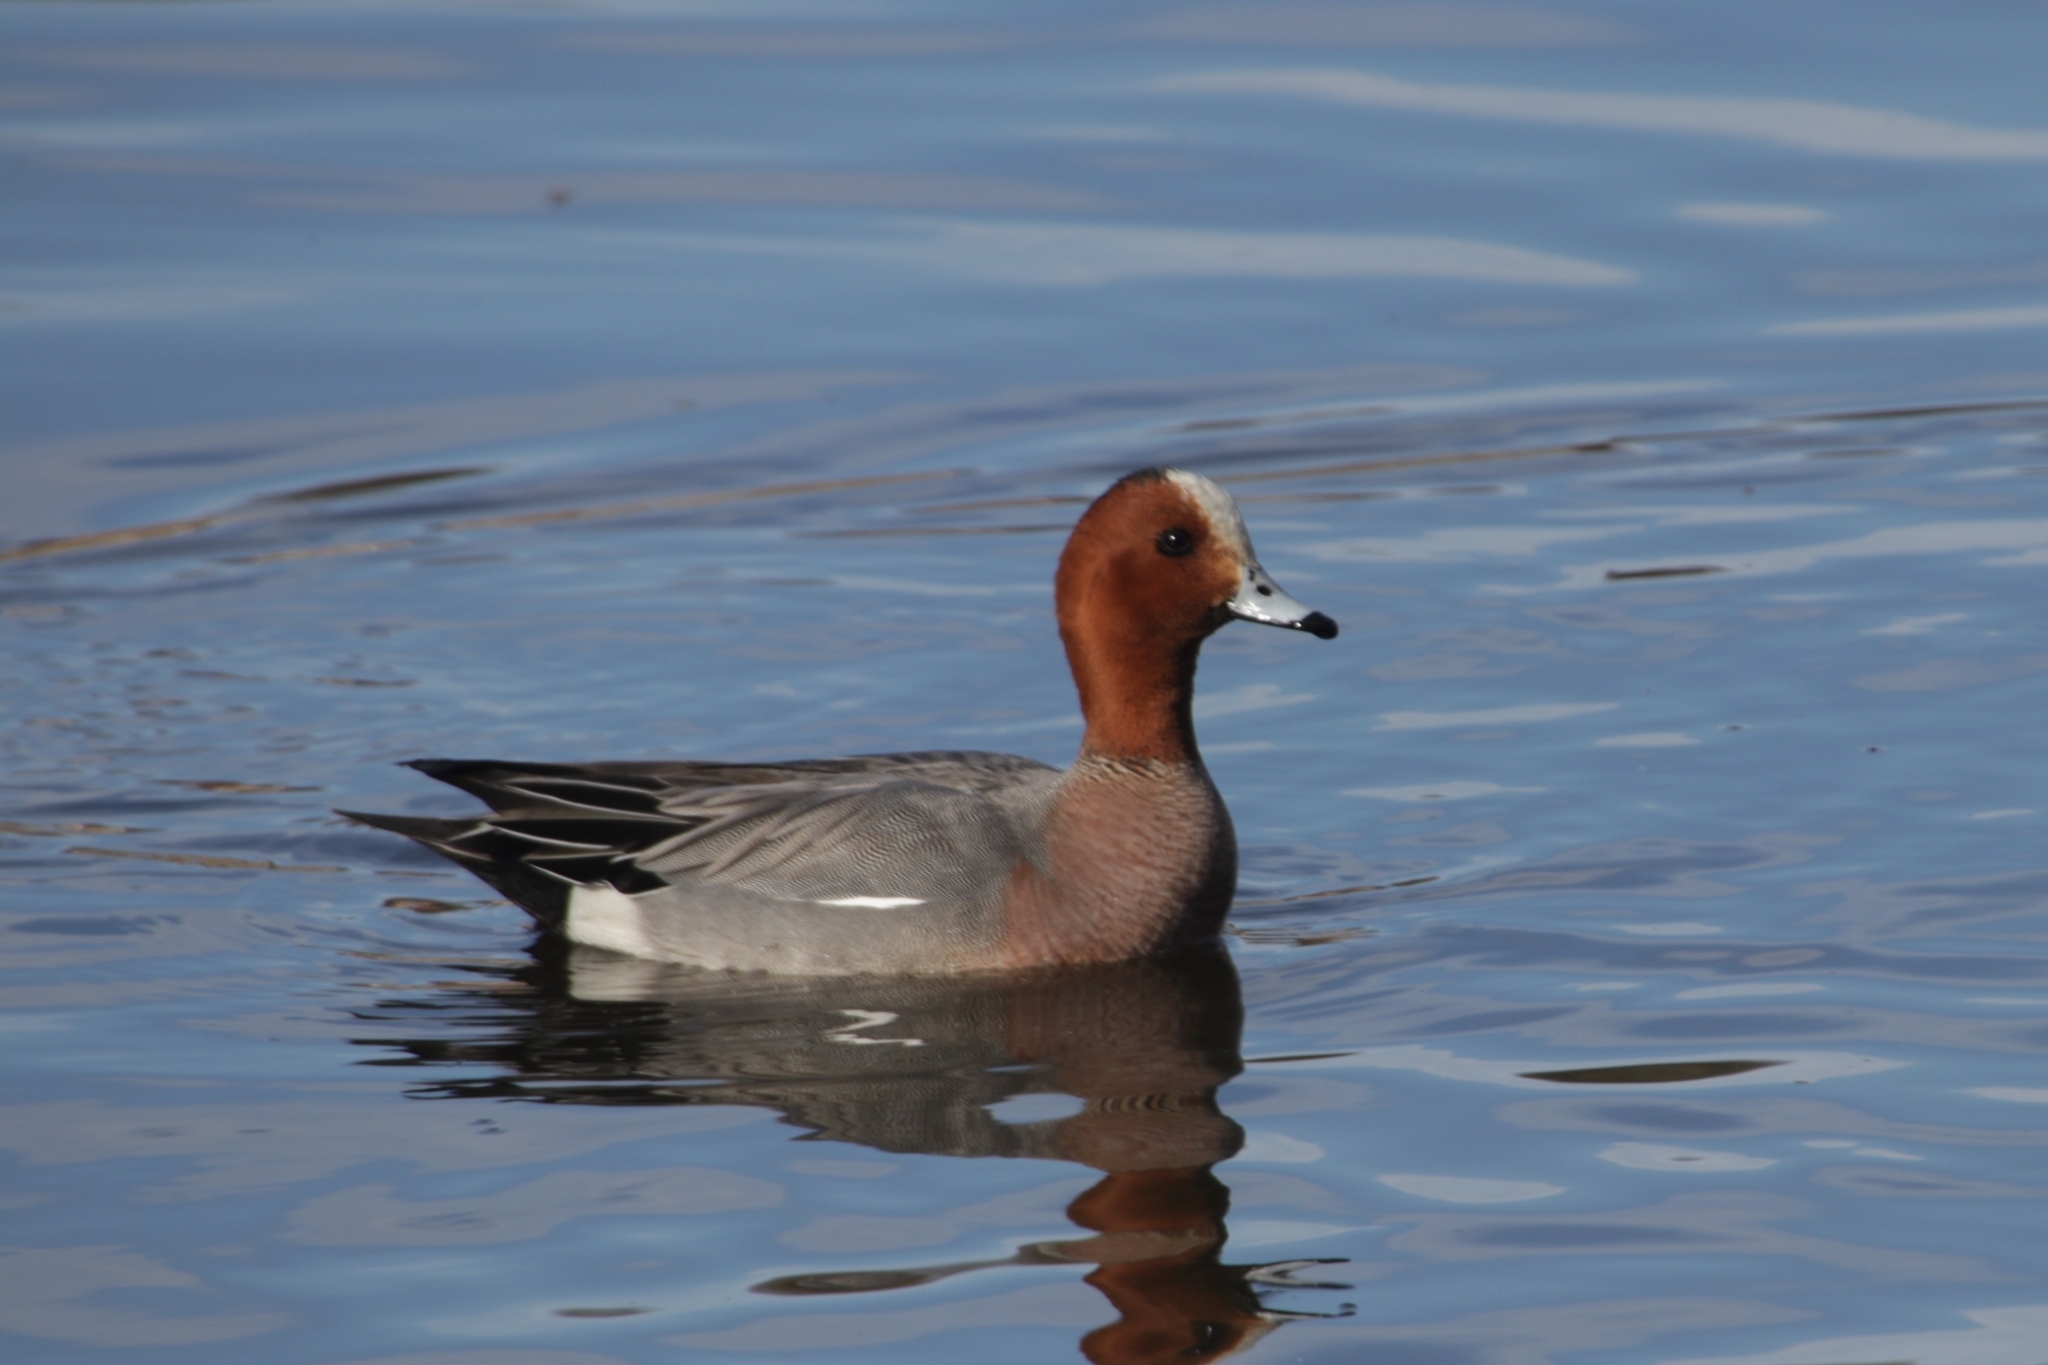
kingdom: Animalia
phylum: Chordata
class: Aves
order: Anseriformes
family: Anatidae
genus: Mareca
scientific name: Mareca penelope
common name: Eurasian wigeon
